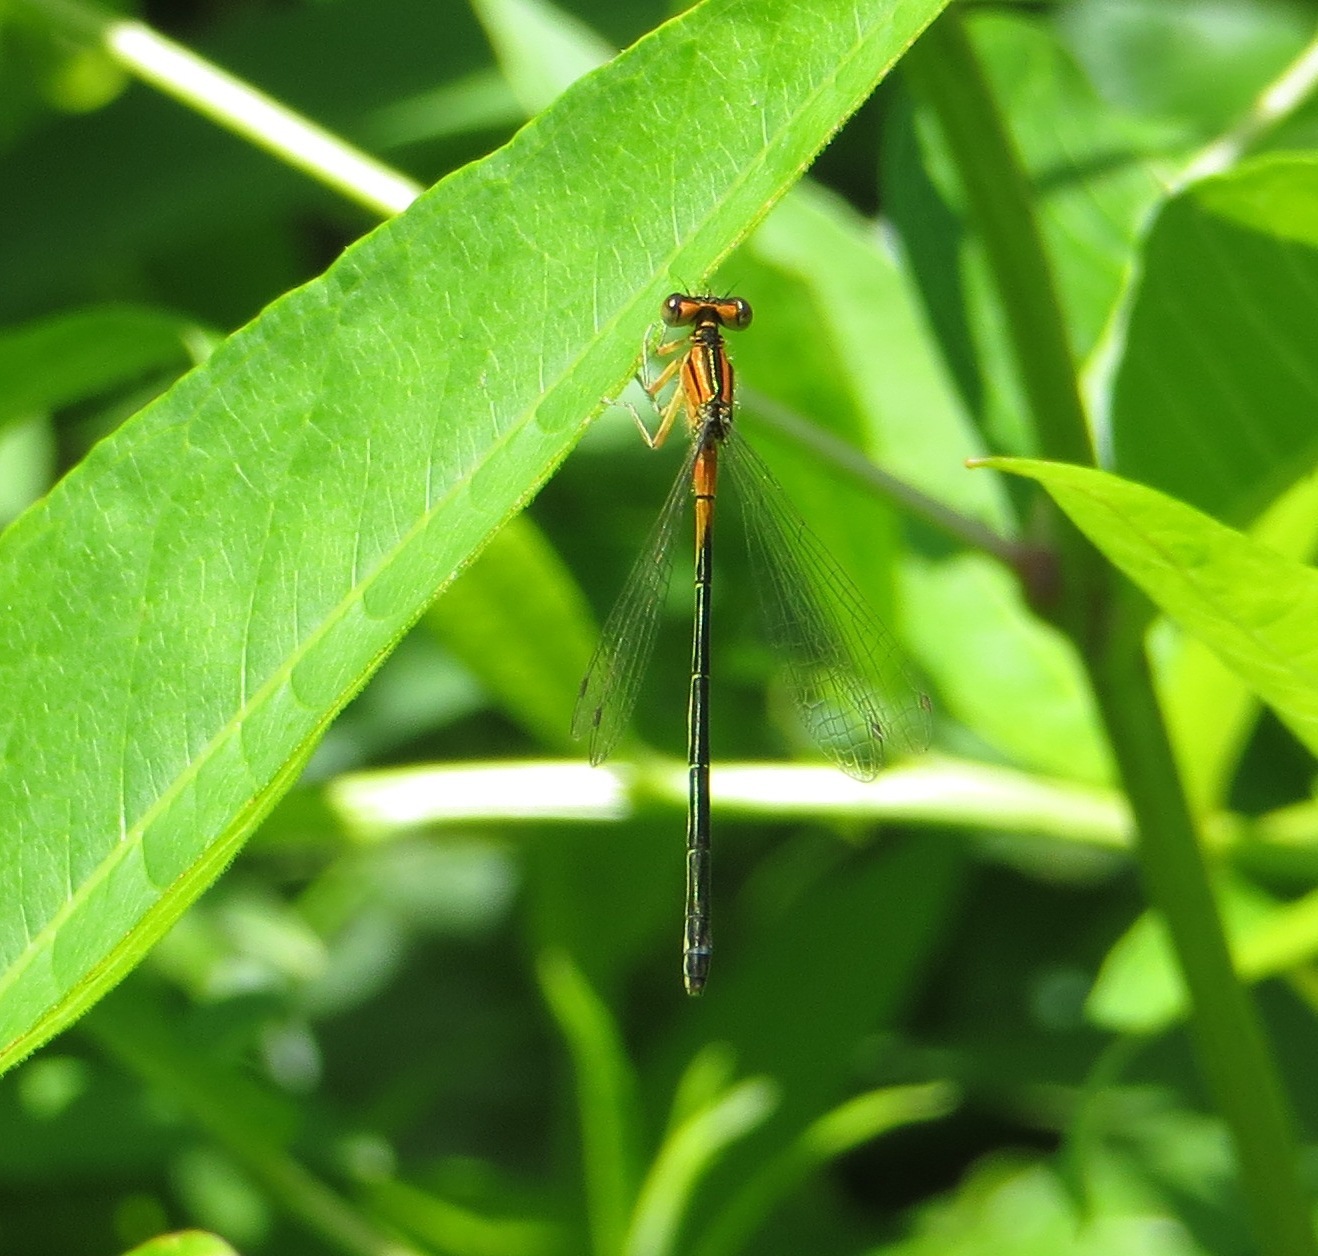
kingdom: Animalia
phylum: Arthropoda
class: Insecta
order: Odonata
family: Coenagrionidae
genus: Ischnura
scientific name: Ischnura verticalis
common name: Eastern forktail
